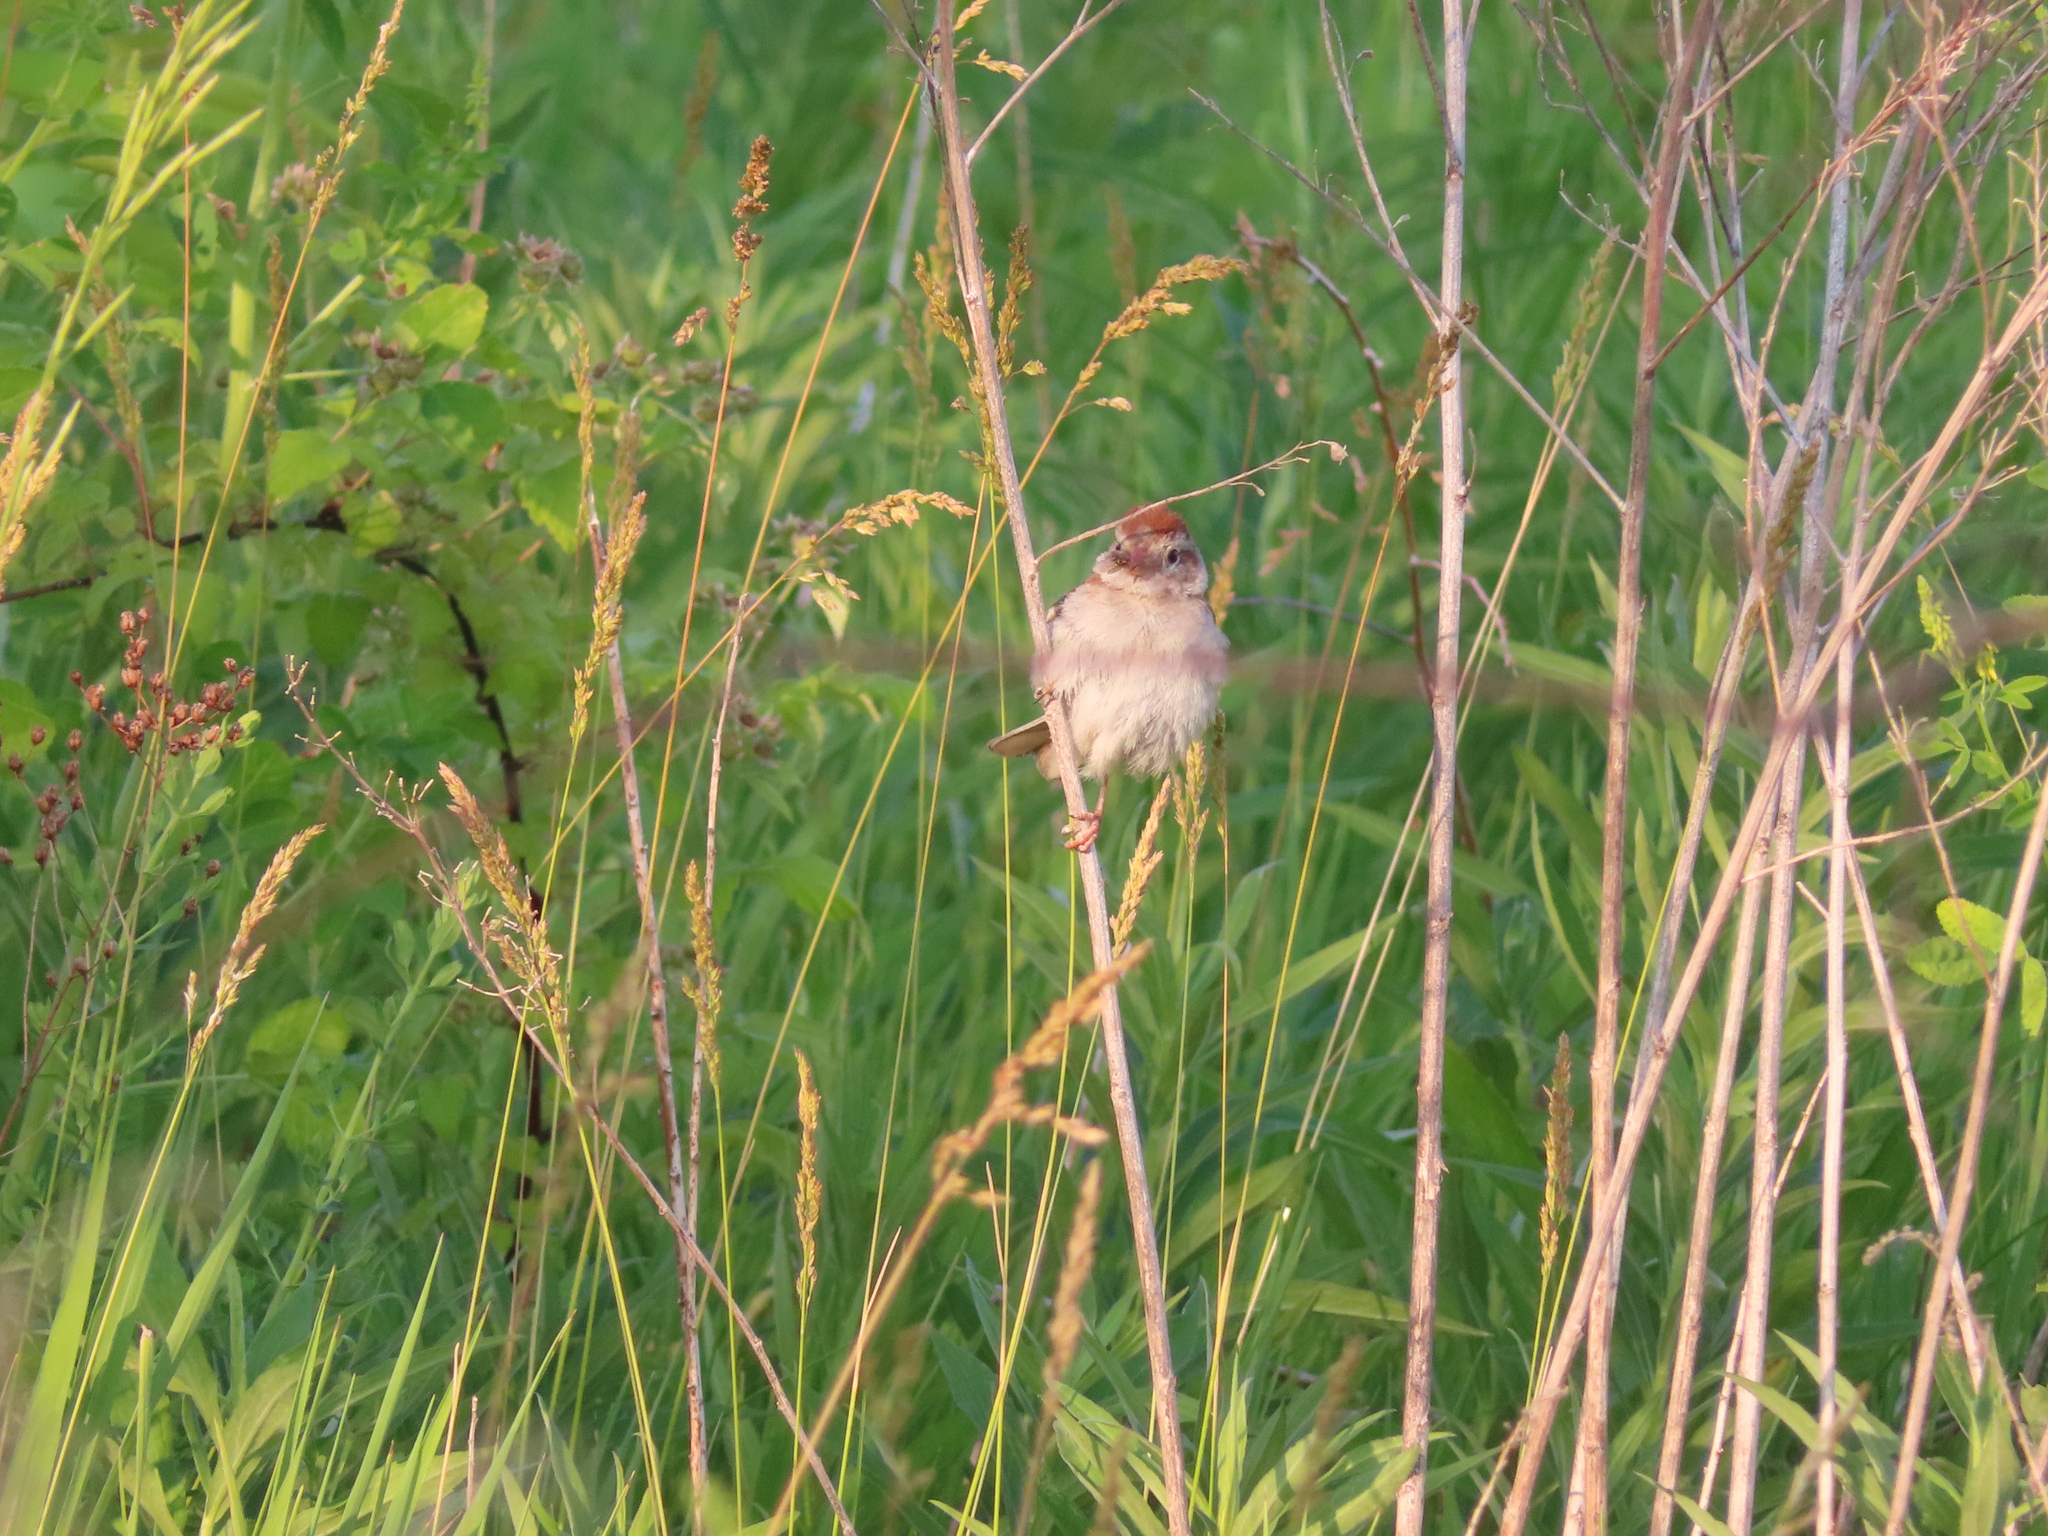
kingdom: Animalia
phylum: Chordata
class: Aves
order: Passeriformes
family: Passerellidae
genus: Spizella
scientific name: Spizella pusilla
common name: Field sparrow
